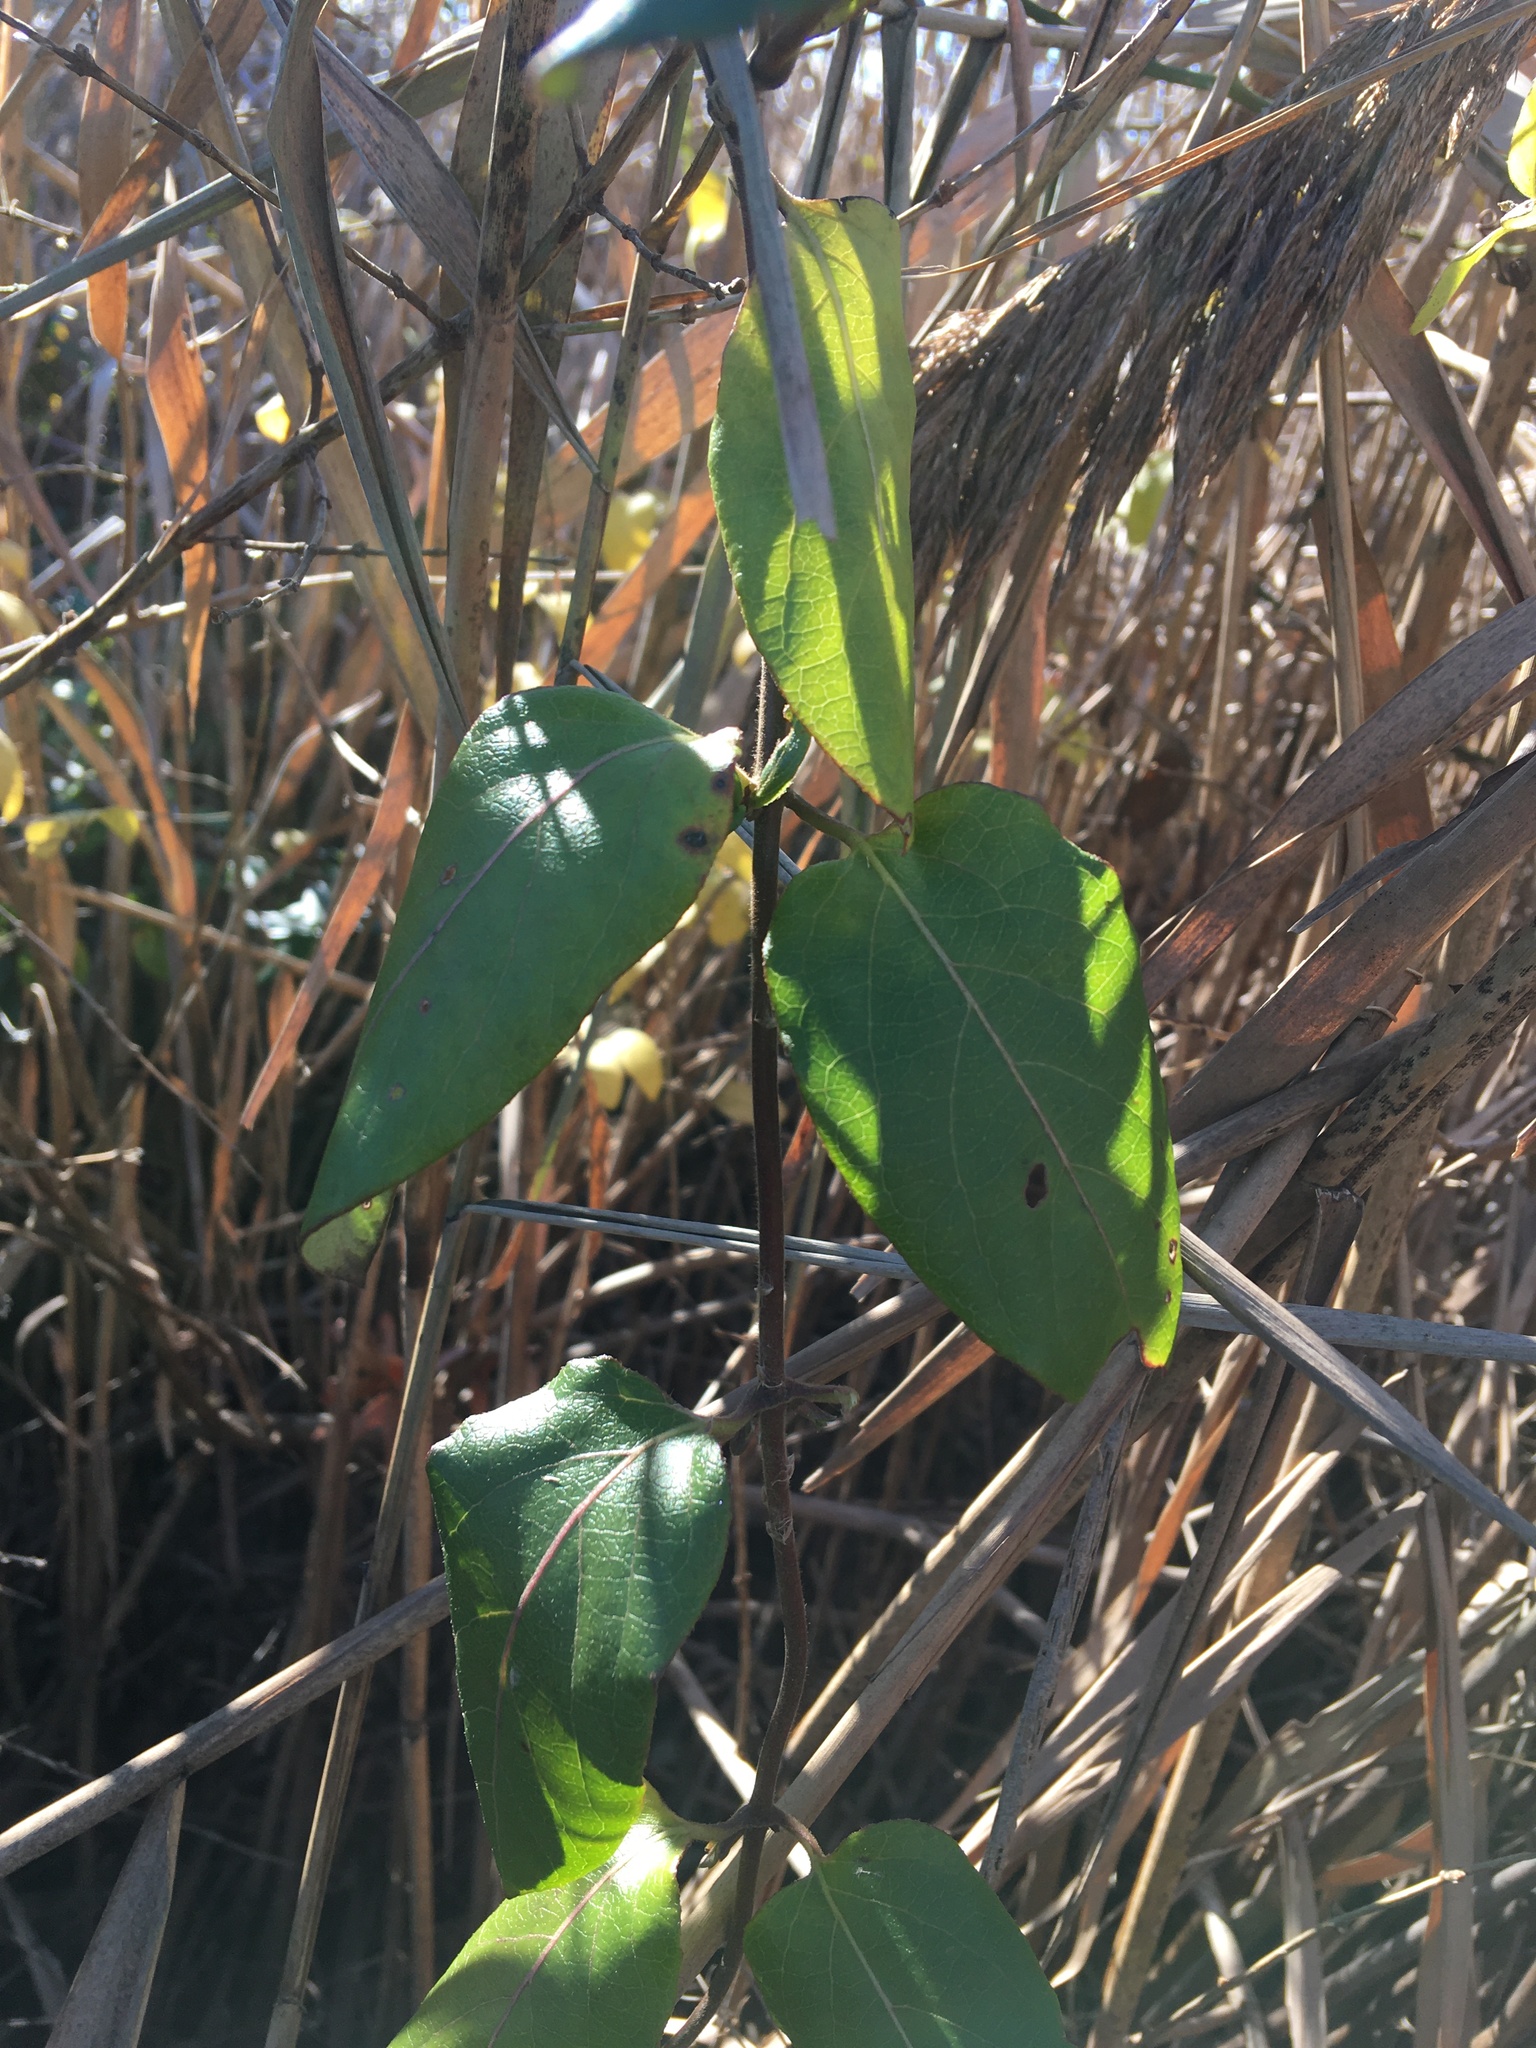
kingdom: Plantae
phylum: Tracheophyta
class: Magnoliopsida
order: Dipsacales
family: Caprifoliaceae
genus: Lonicera
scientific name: Lonicera japonica
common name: Japanese honeysuckle
